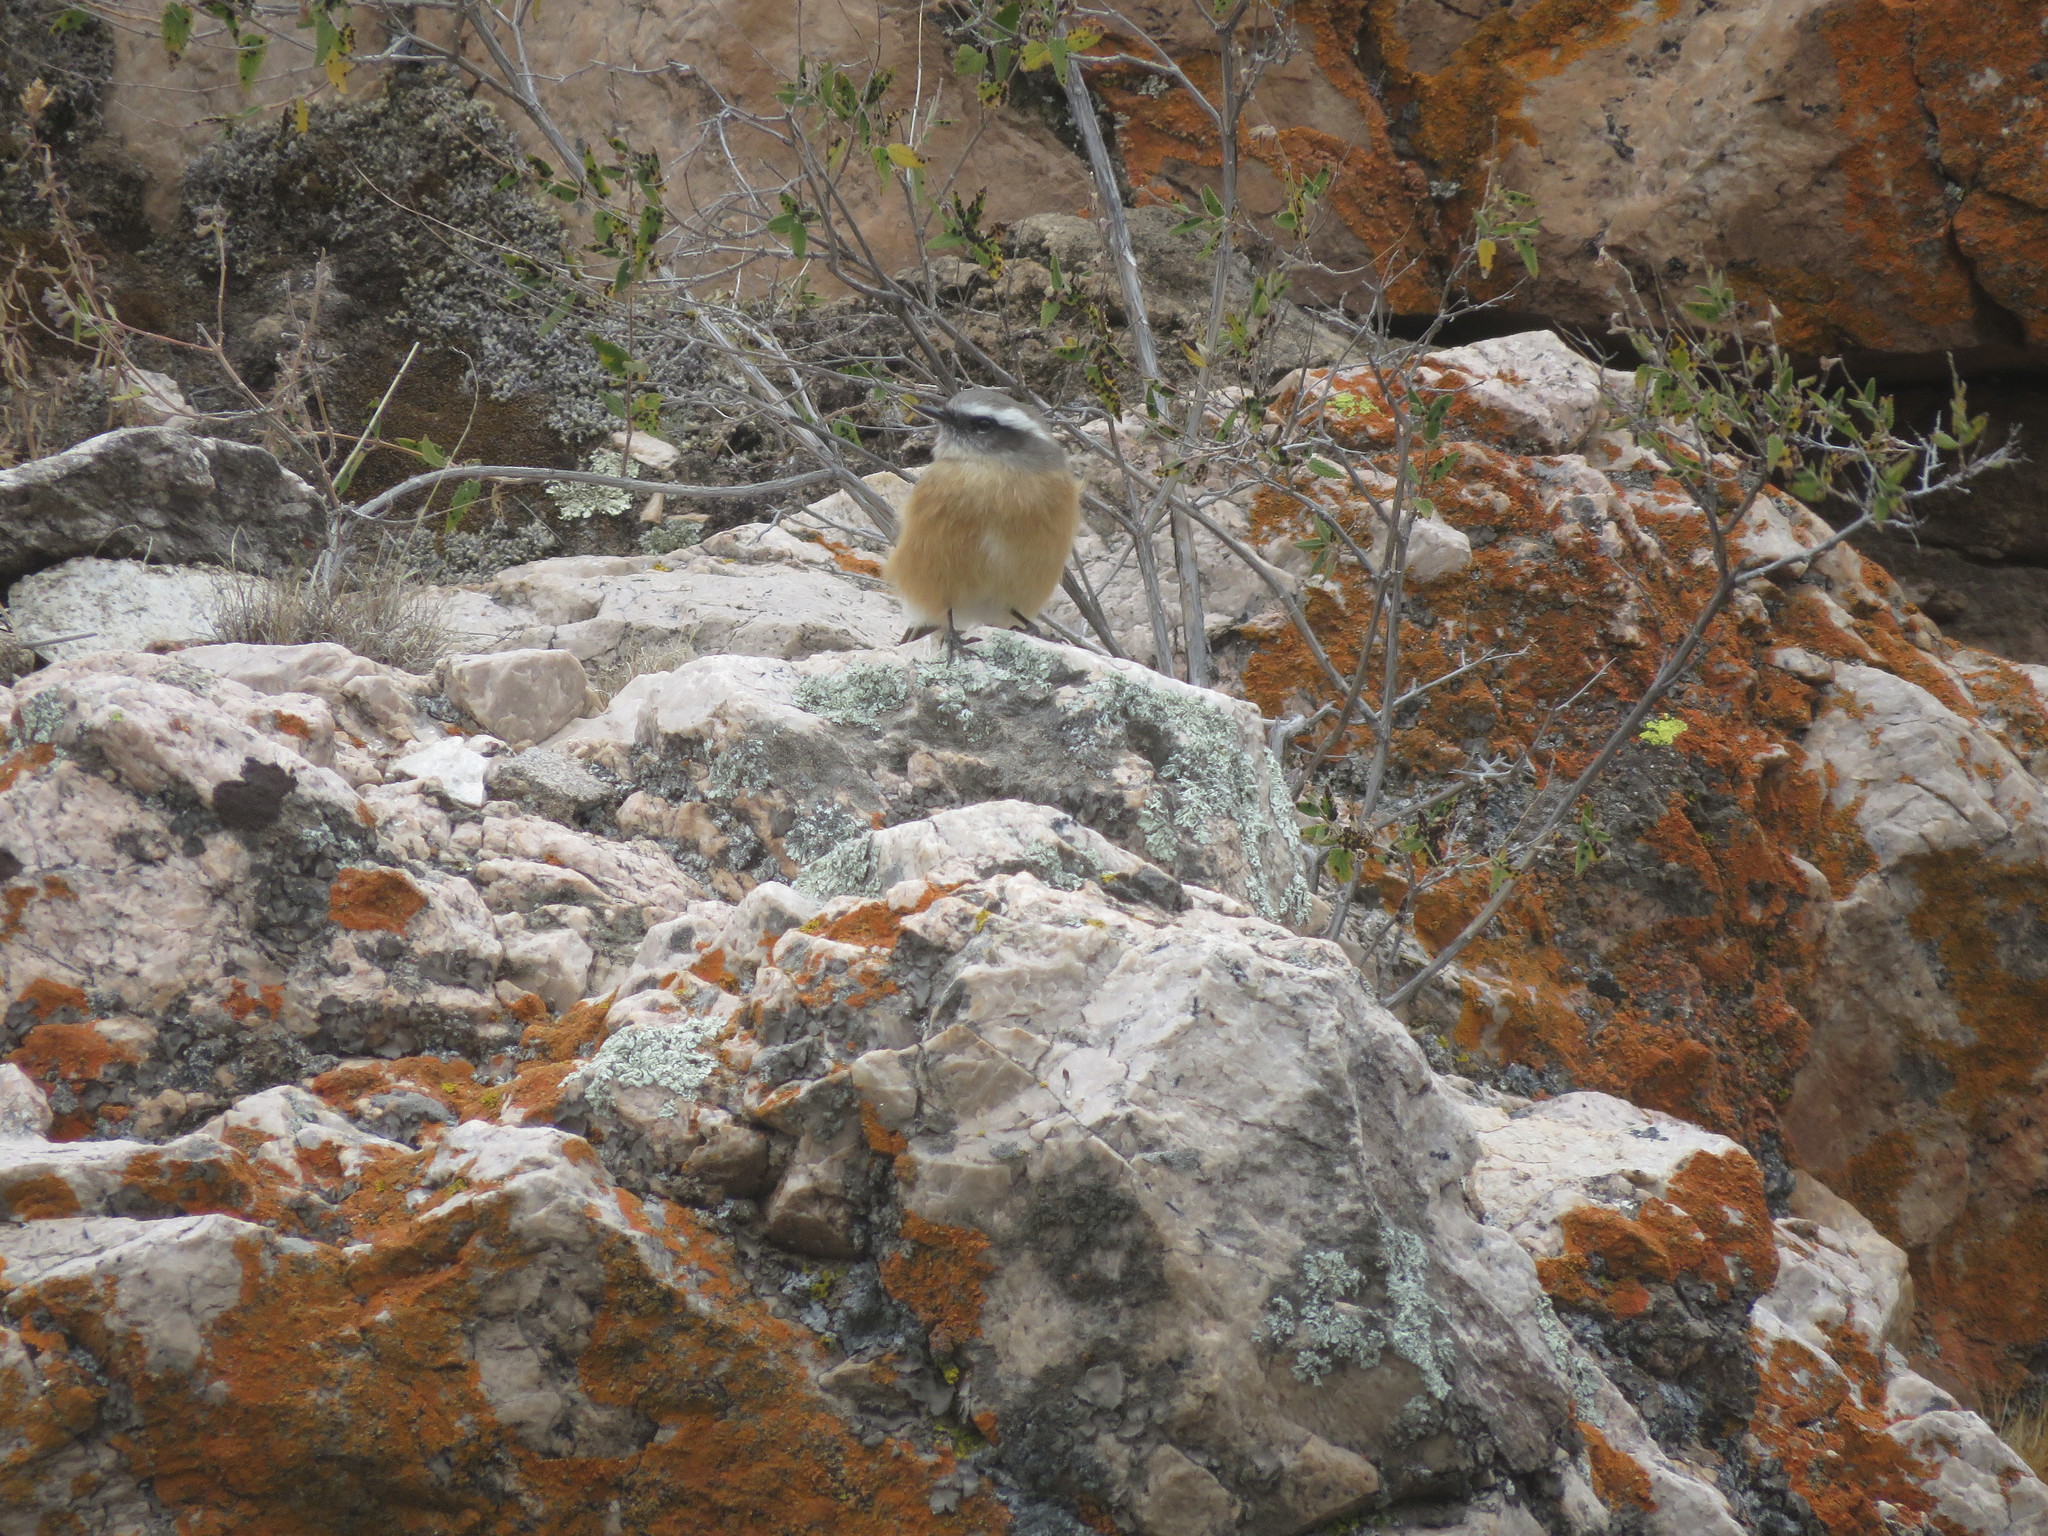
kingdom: Animalia
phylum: Chordata
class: Aves
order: Passeriformes
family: Tyrannidae
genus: Ochthoeca
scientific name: Ochthoeca oenanthoides
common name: D'orbigny's chat-tyrant
